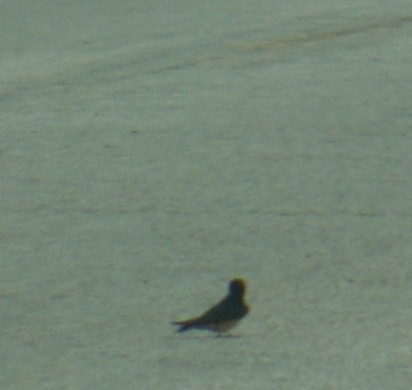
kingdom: Animalia
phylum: Chordata
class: Aves
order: Passeriformes
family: Hirundinidae
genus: Hirundo
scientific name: Hirundo rustica
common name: Barn swallow
